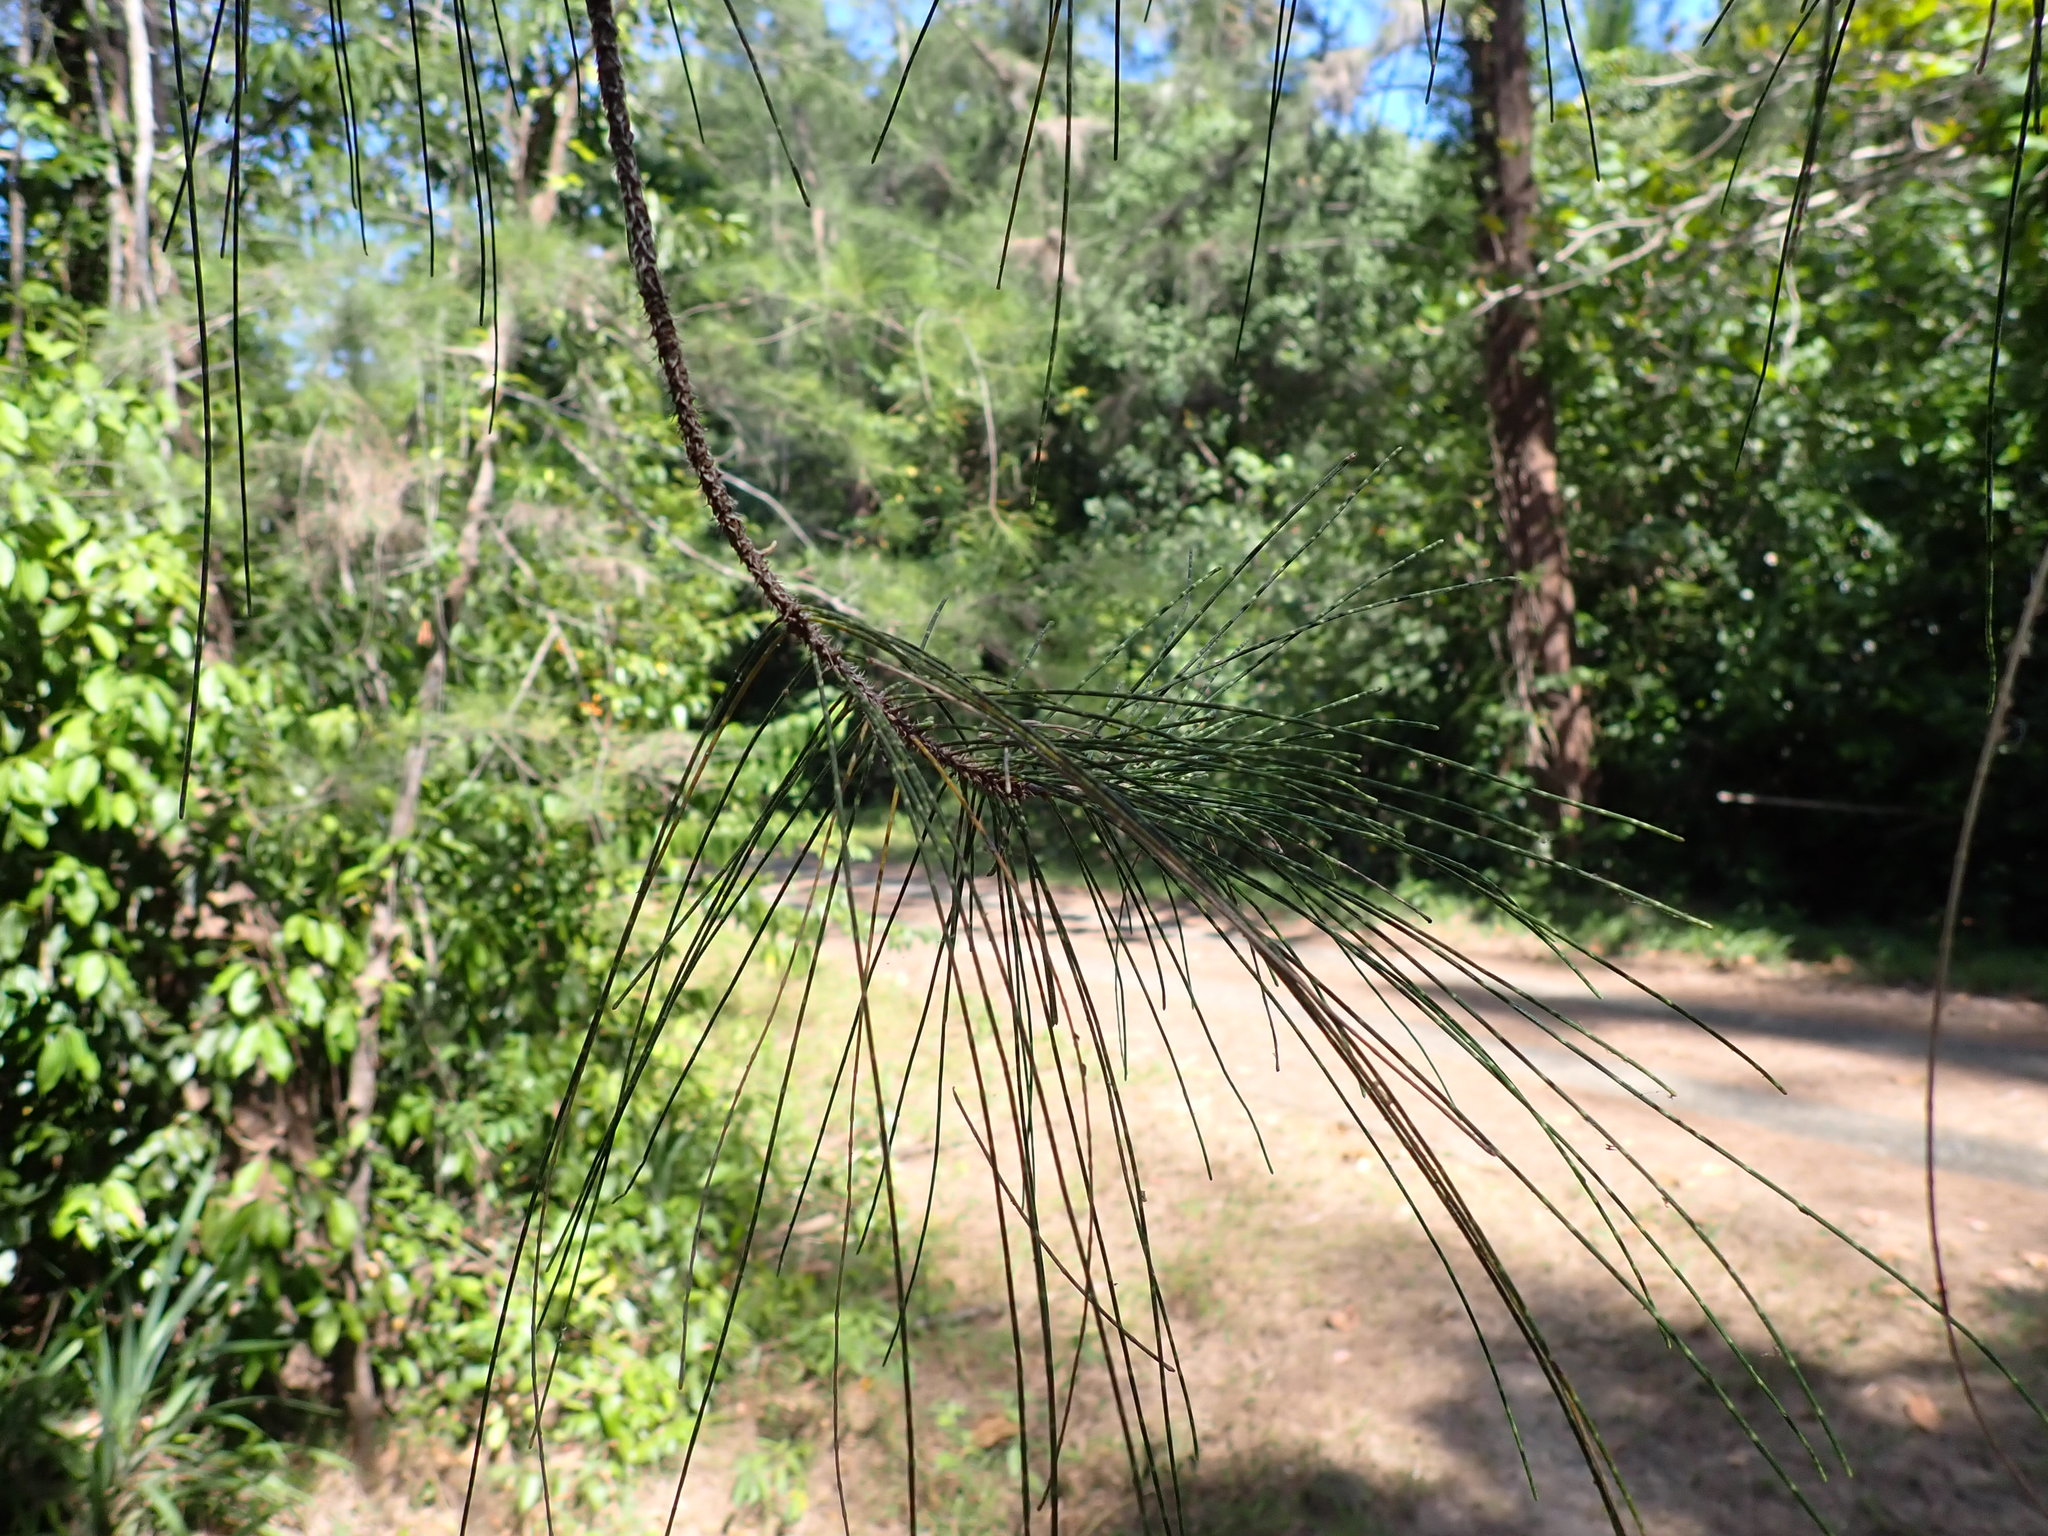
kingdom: Plantae
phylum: Tracheophyta
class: Magnoliopsida
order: Fagales
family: Casuarinaceae
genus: Casuarina
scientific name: Casuarina equisetifolia
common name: Beach sheoak
